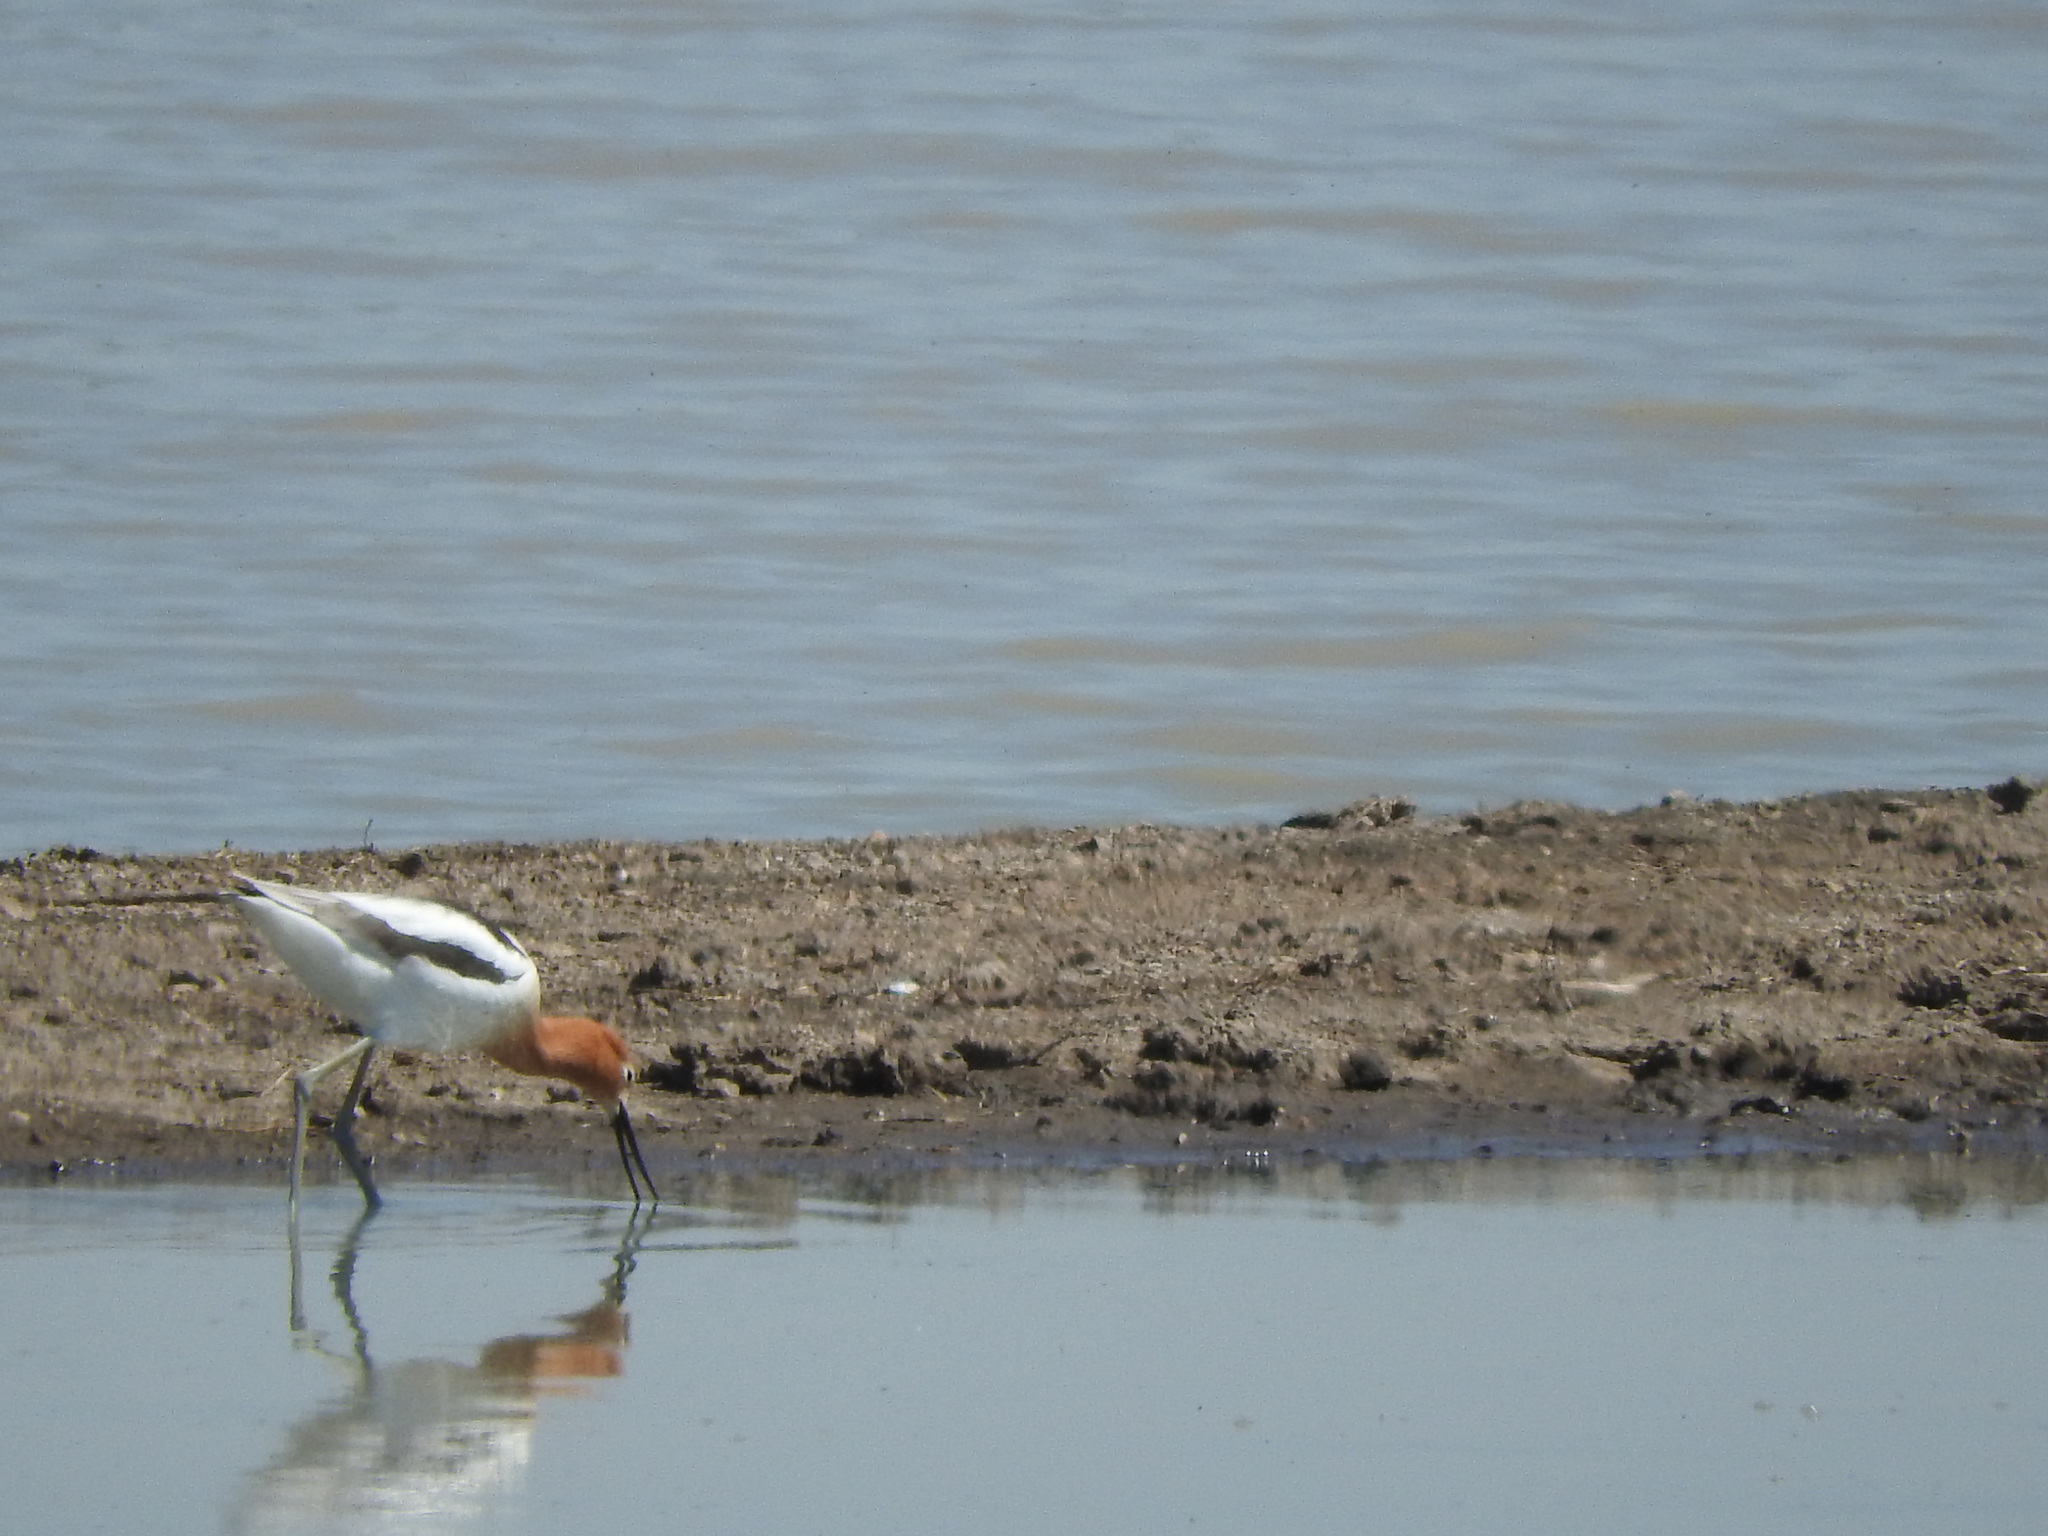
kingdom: Animalia
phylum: Chordata
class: Aves
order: Charadriiformes
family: Recurvirostridae
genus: Recurvirostra
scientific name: Recurvirostra americana
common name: American avocet
